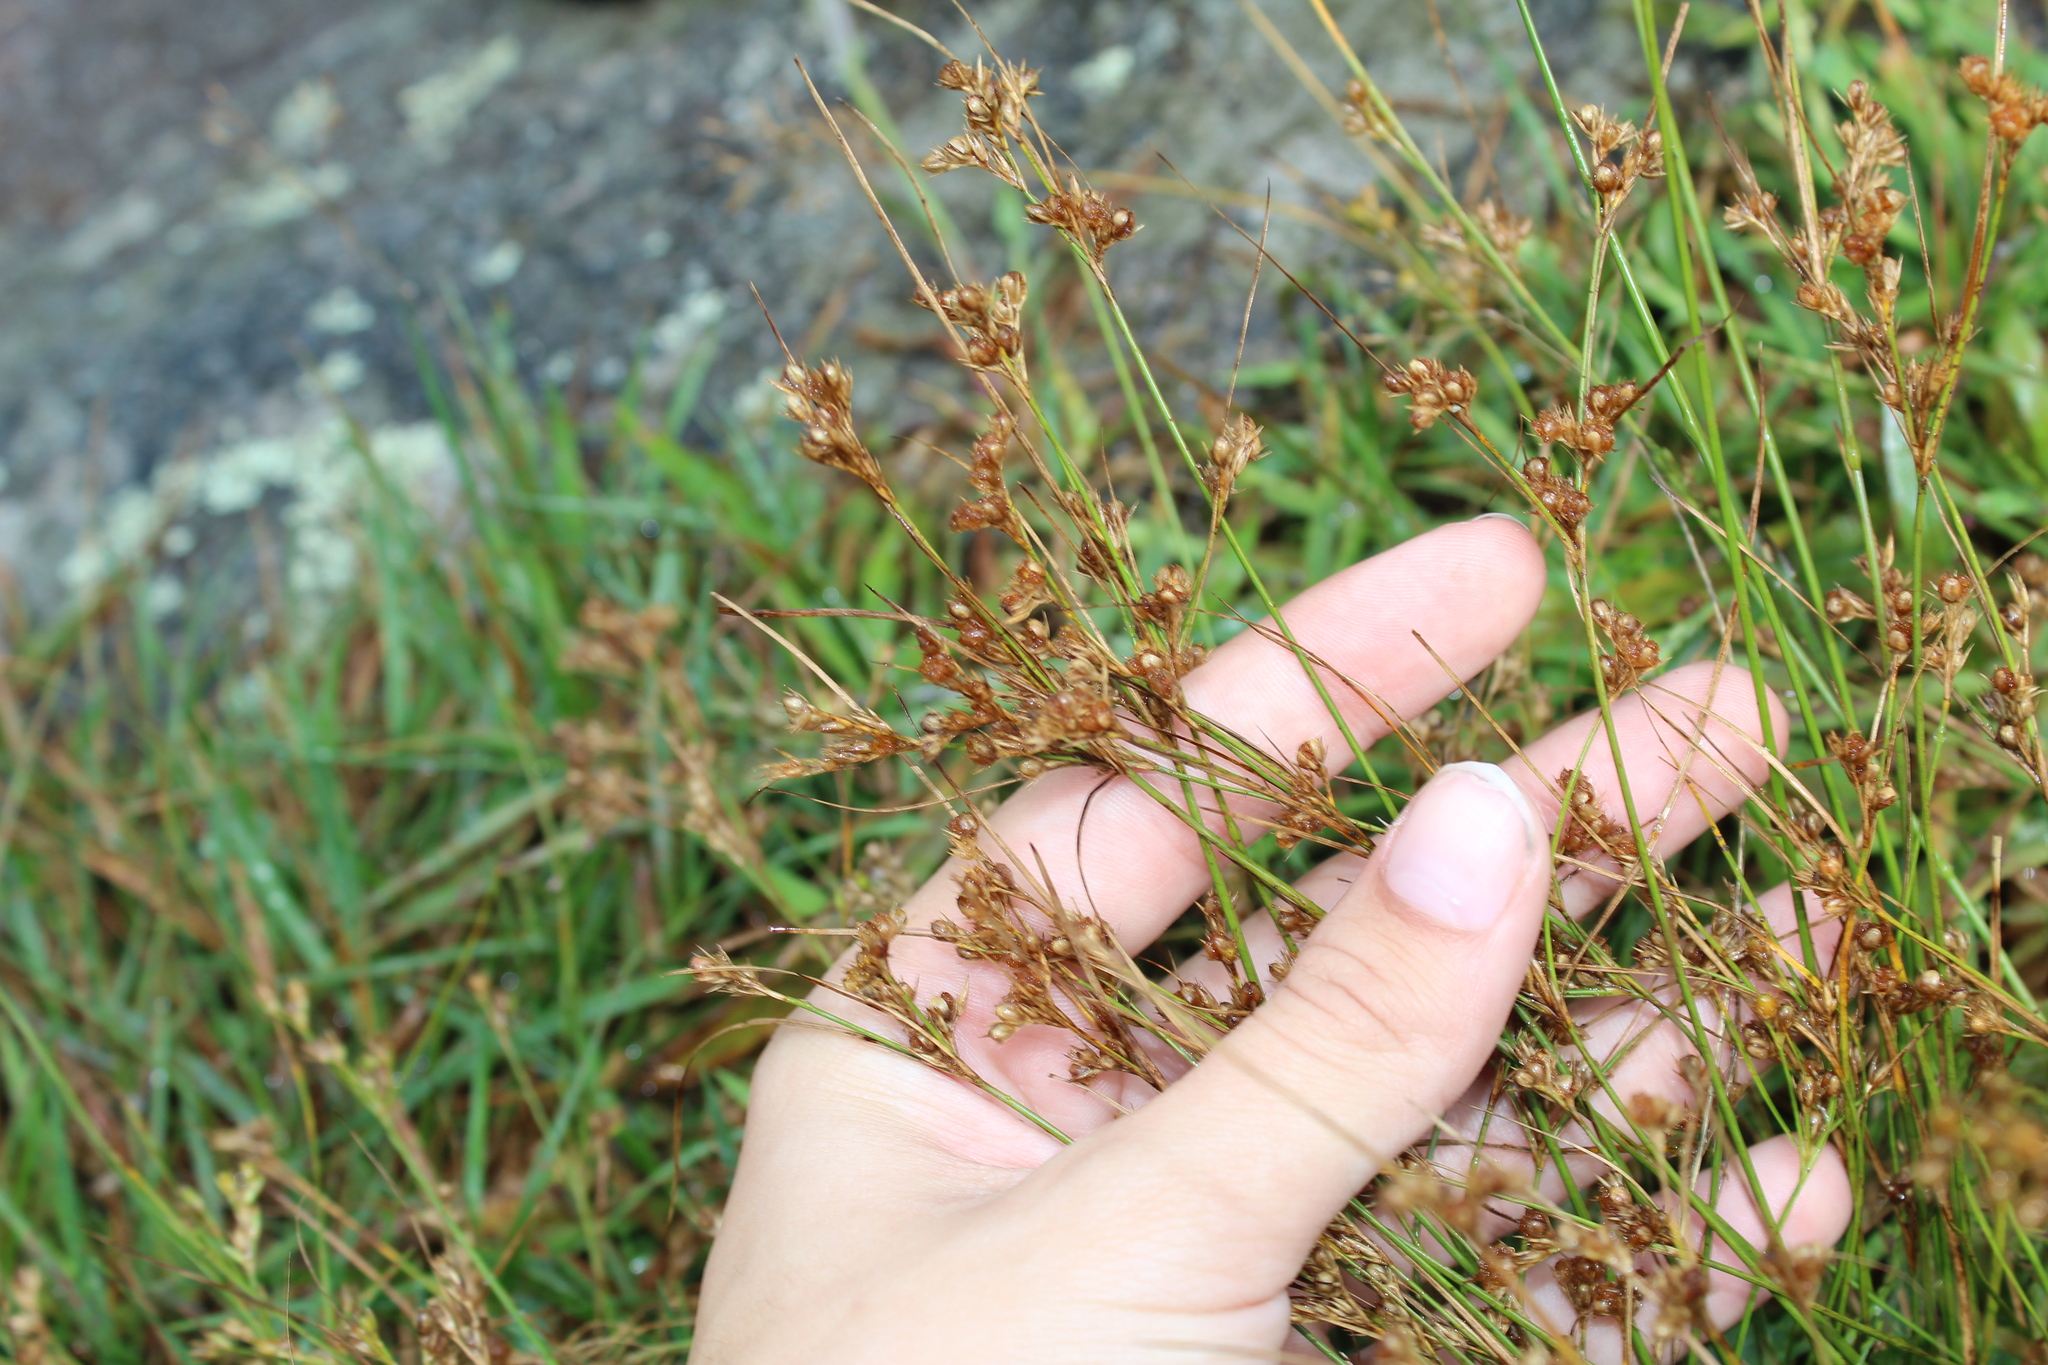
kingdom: Plantae
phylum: Tracheophyta
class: Liliopsida
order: Poales
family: Juncaceae
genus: Juncus
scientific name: Juncus tenuis
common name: Slender rush
